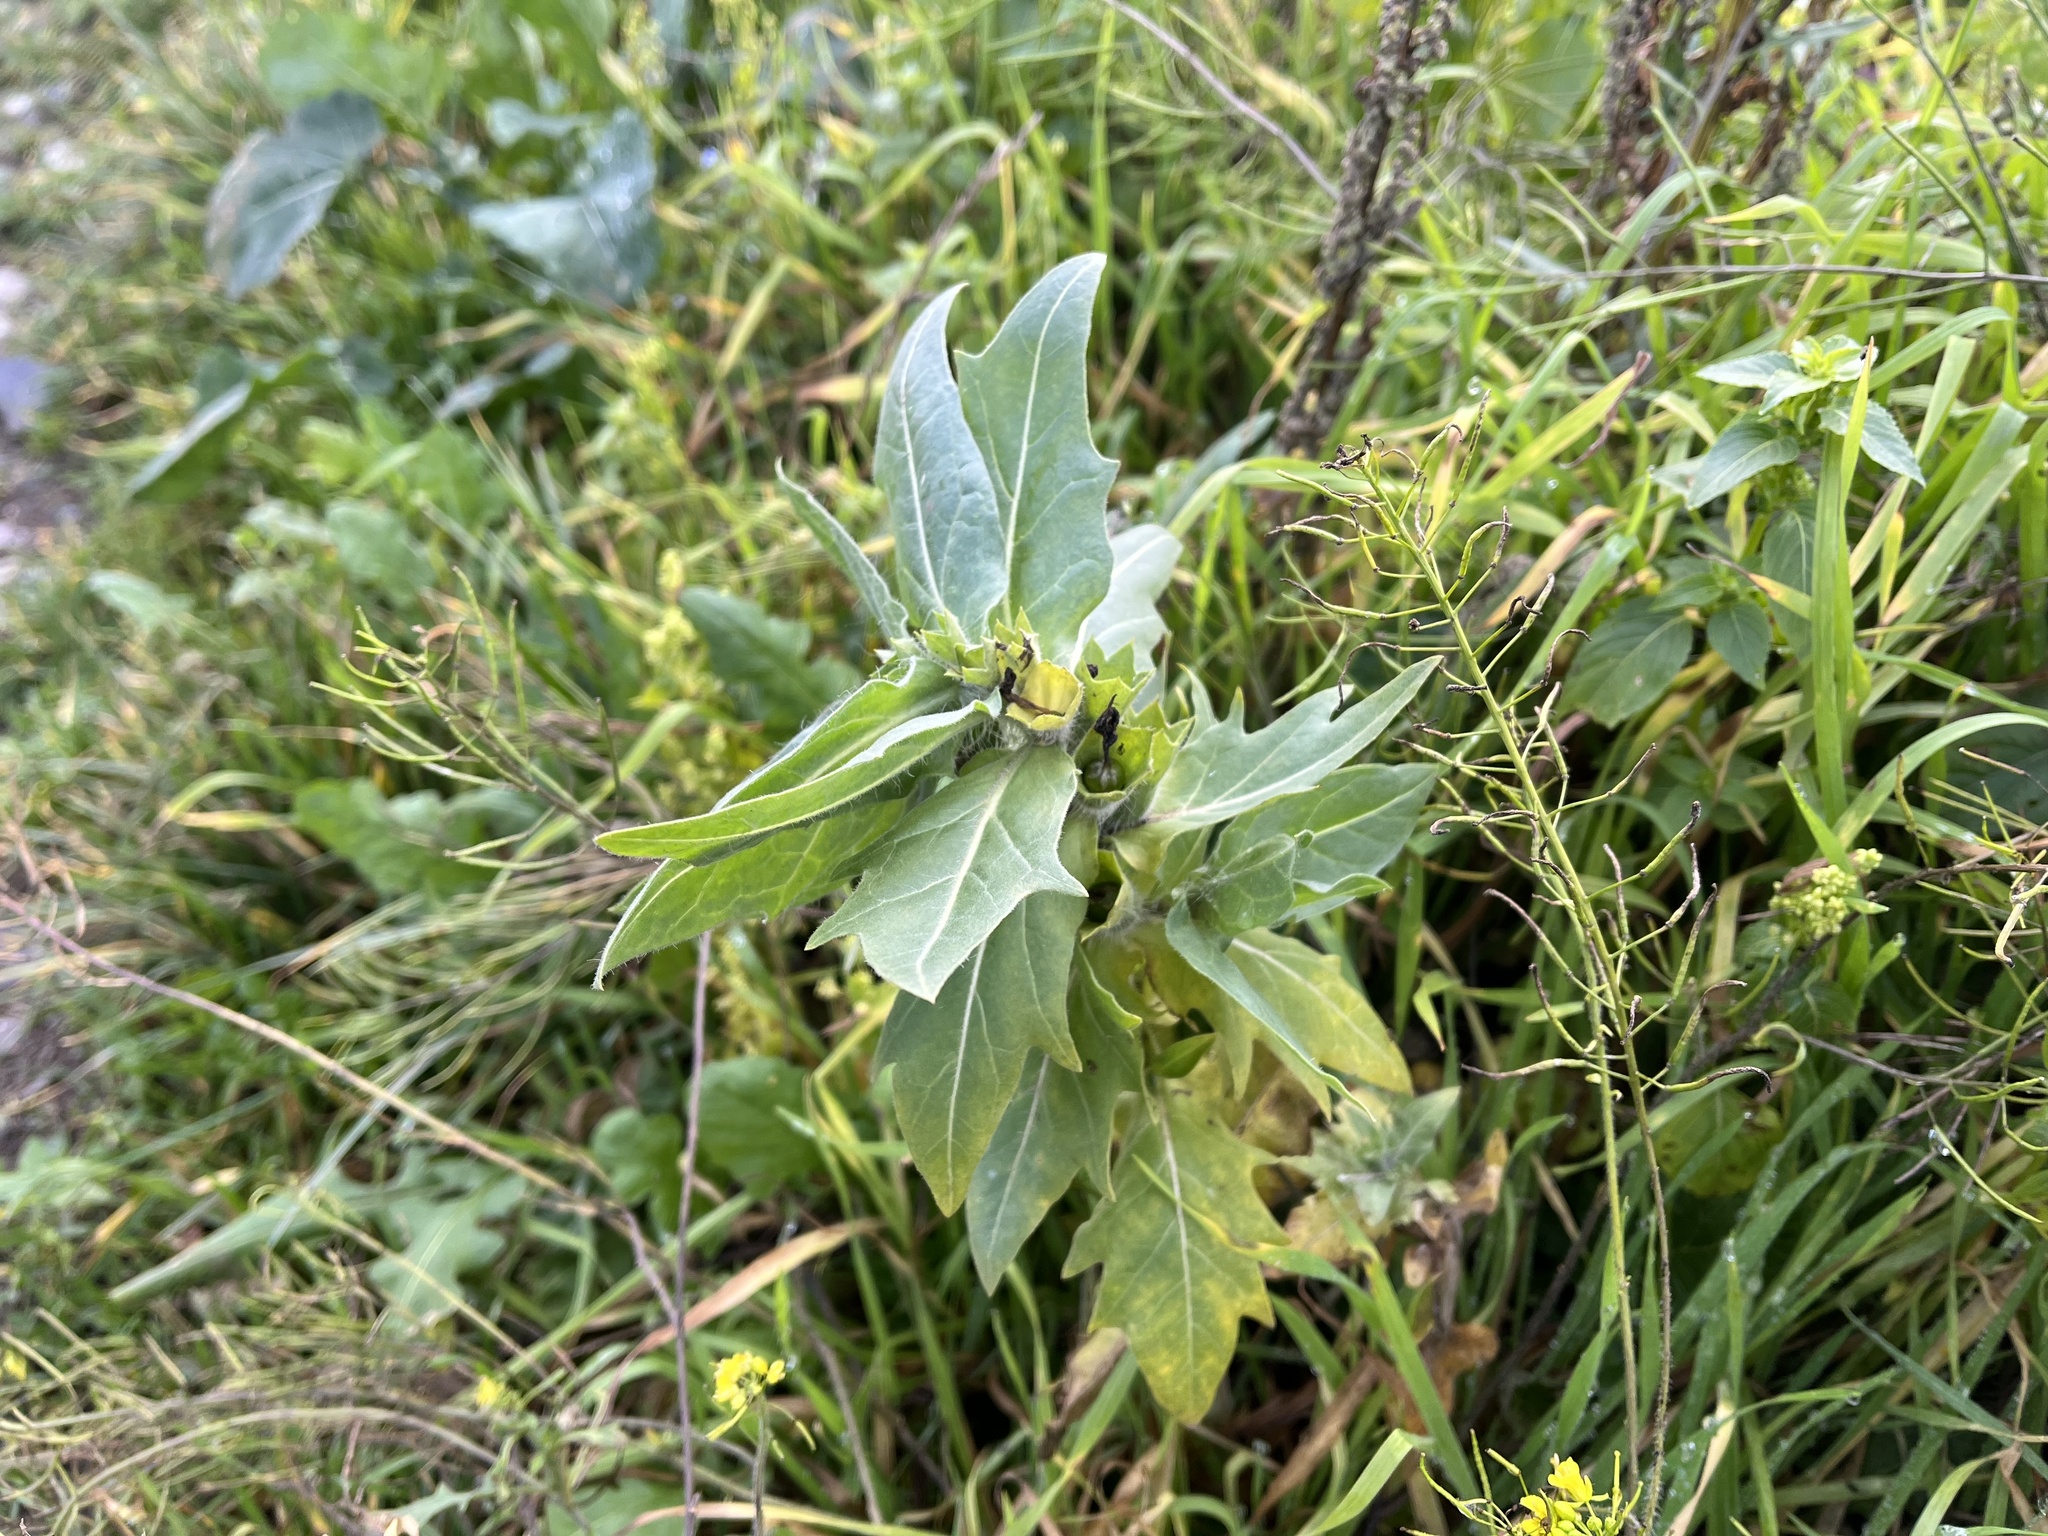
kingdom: Plantae
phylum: Tracheophyta
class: Magnoliopsida
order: Solanales
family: Solanaceae
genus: Hyoscyamus
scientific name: Hyoscyamus niger
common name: Henbane
